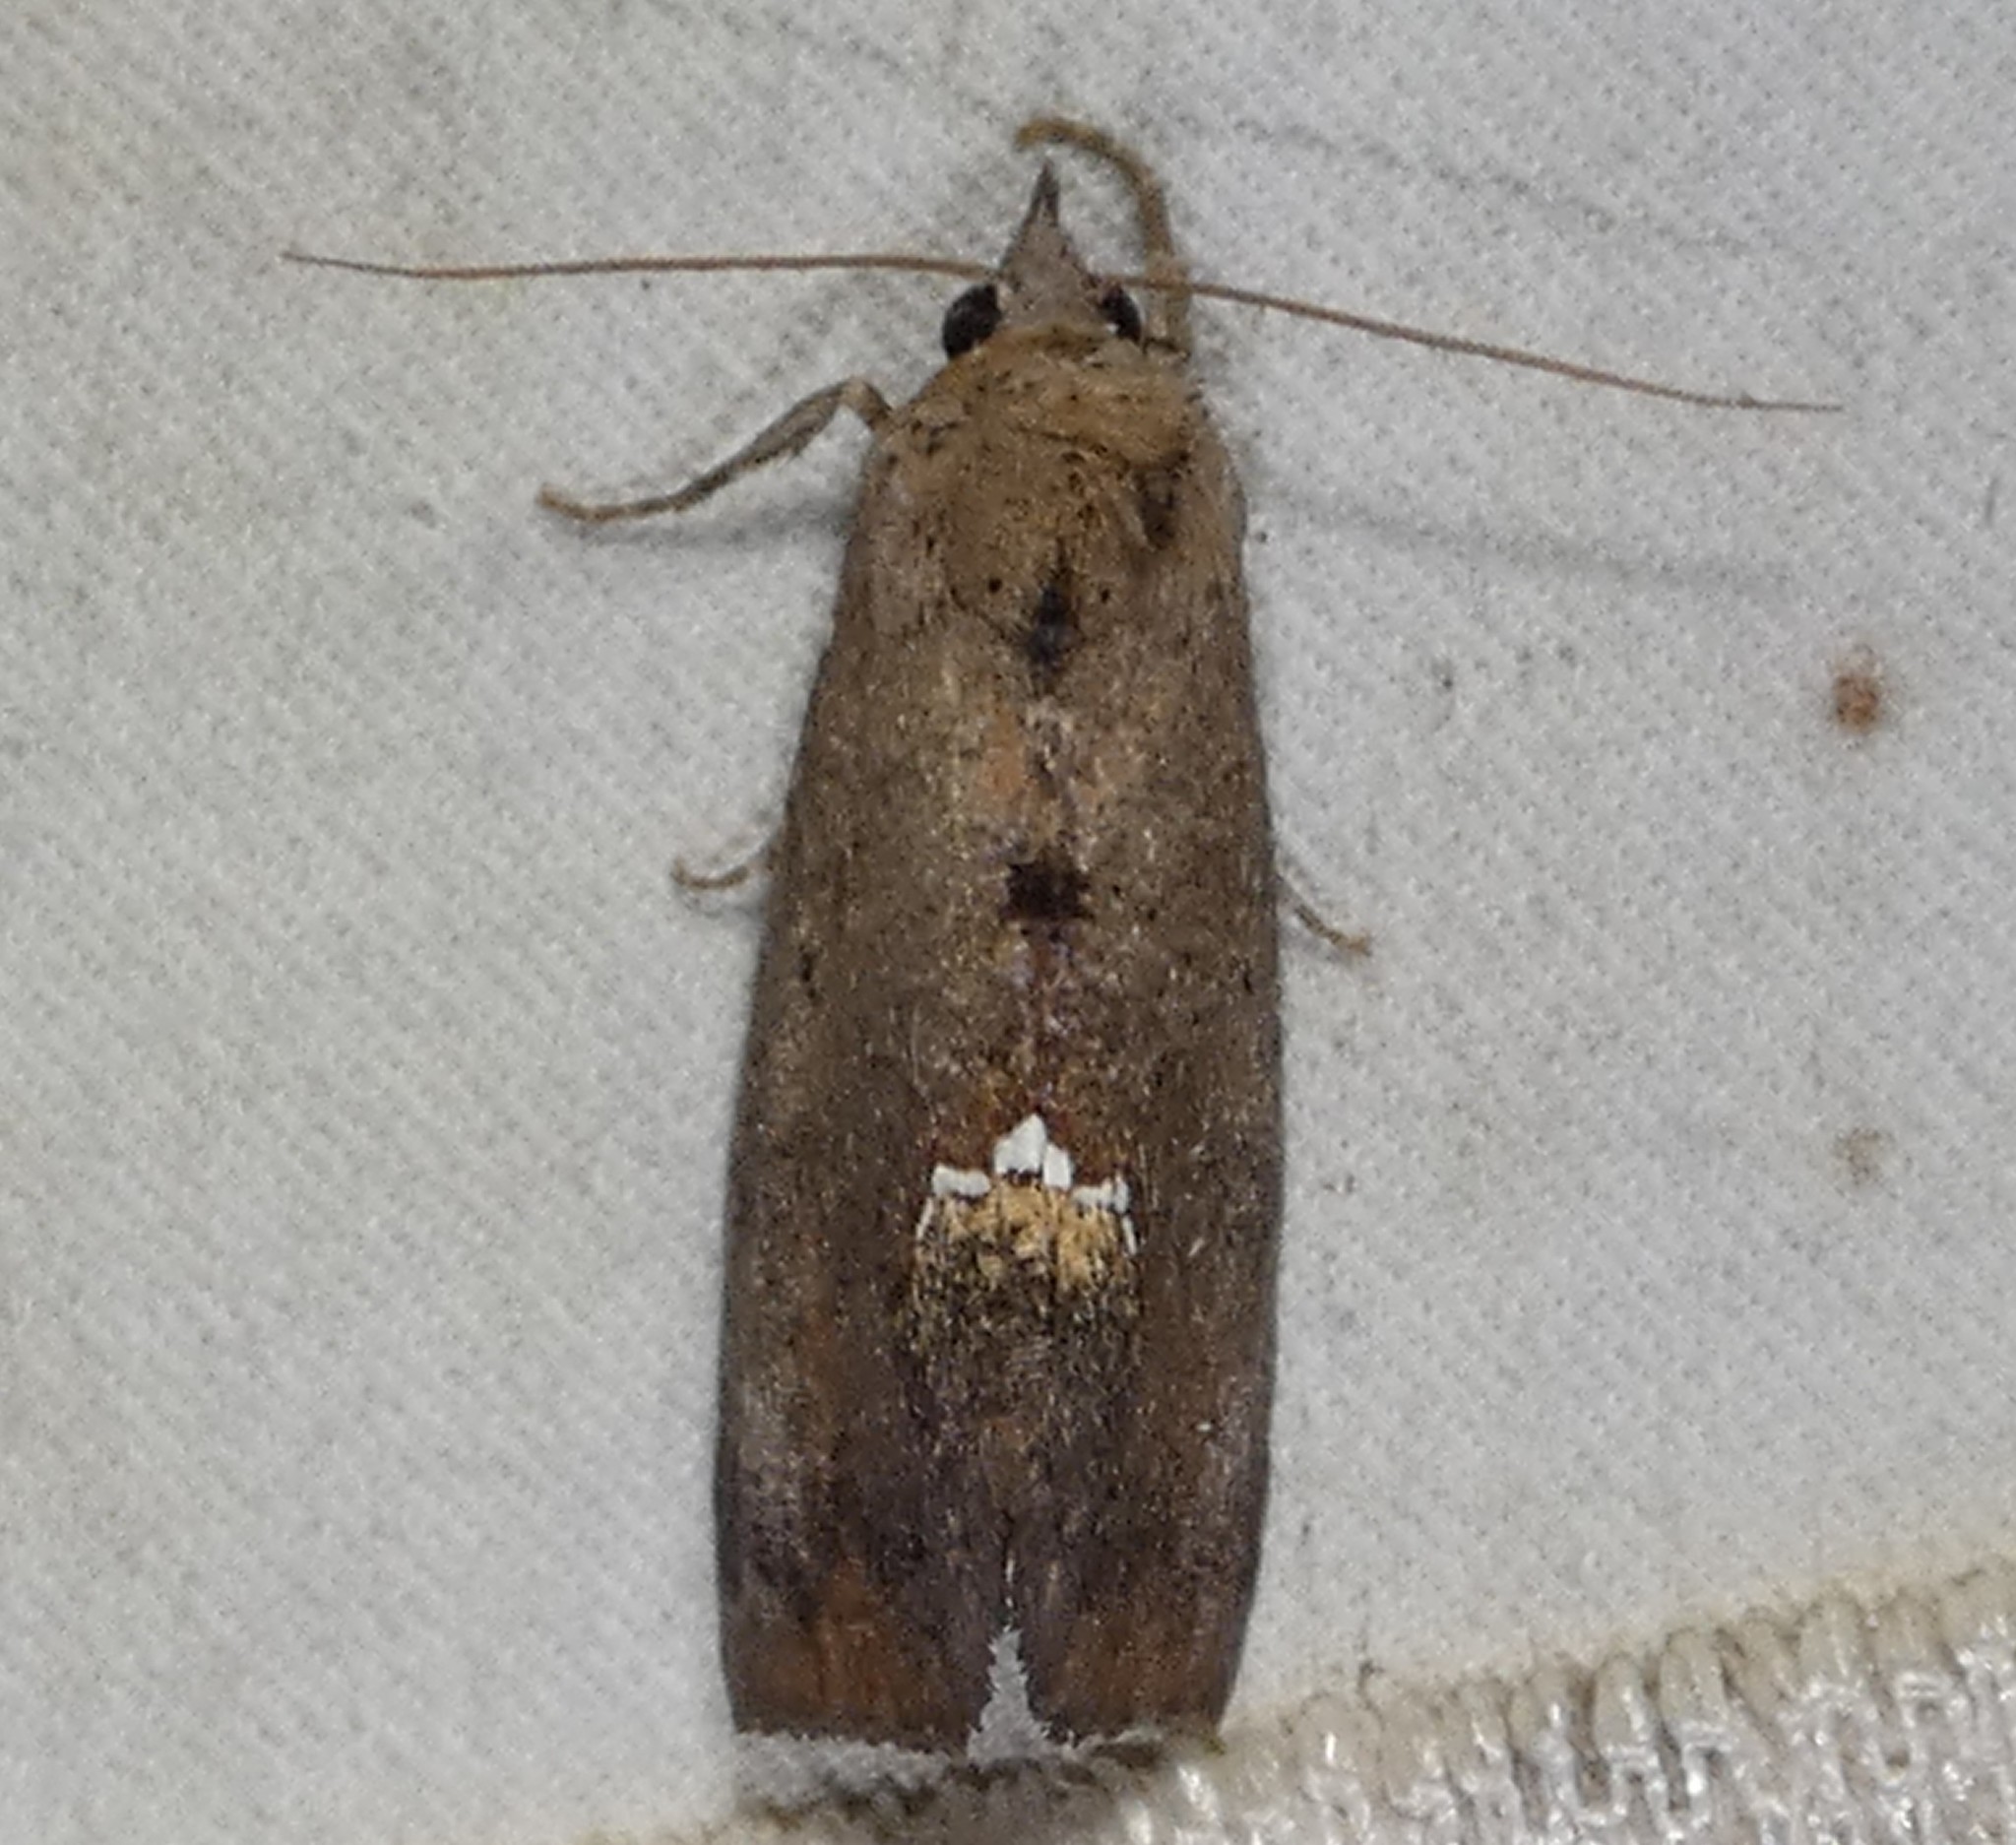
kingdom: Animalia
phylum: Arthropoda
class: Insecta
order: Lepidoptera
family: Erebidae
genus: Hypsoropha
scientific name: Hypsoropha hormos
